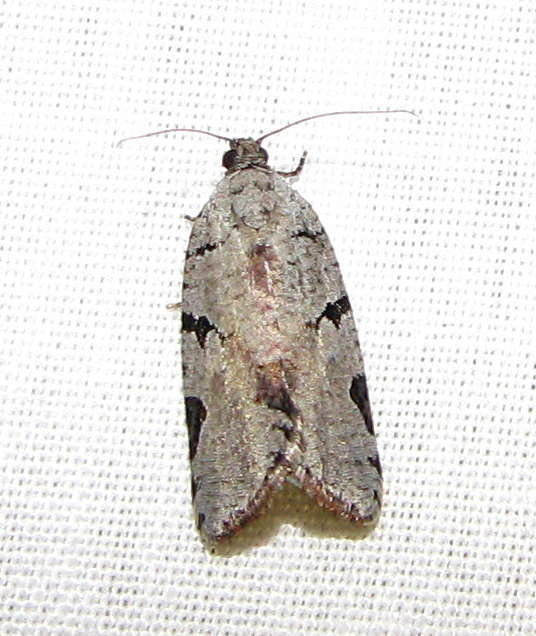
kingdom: Animalia
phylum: Arthropoda
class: Insecta
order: Lepidoptera
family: Tortricidae
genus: Meritastis
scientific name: Meritastis pyrosemana
